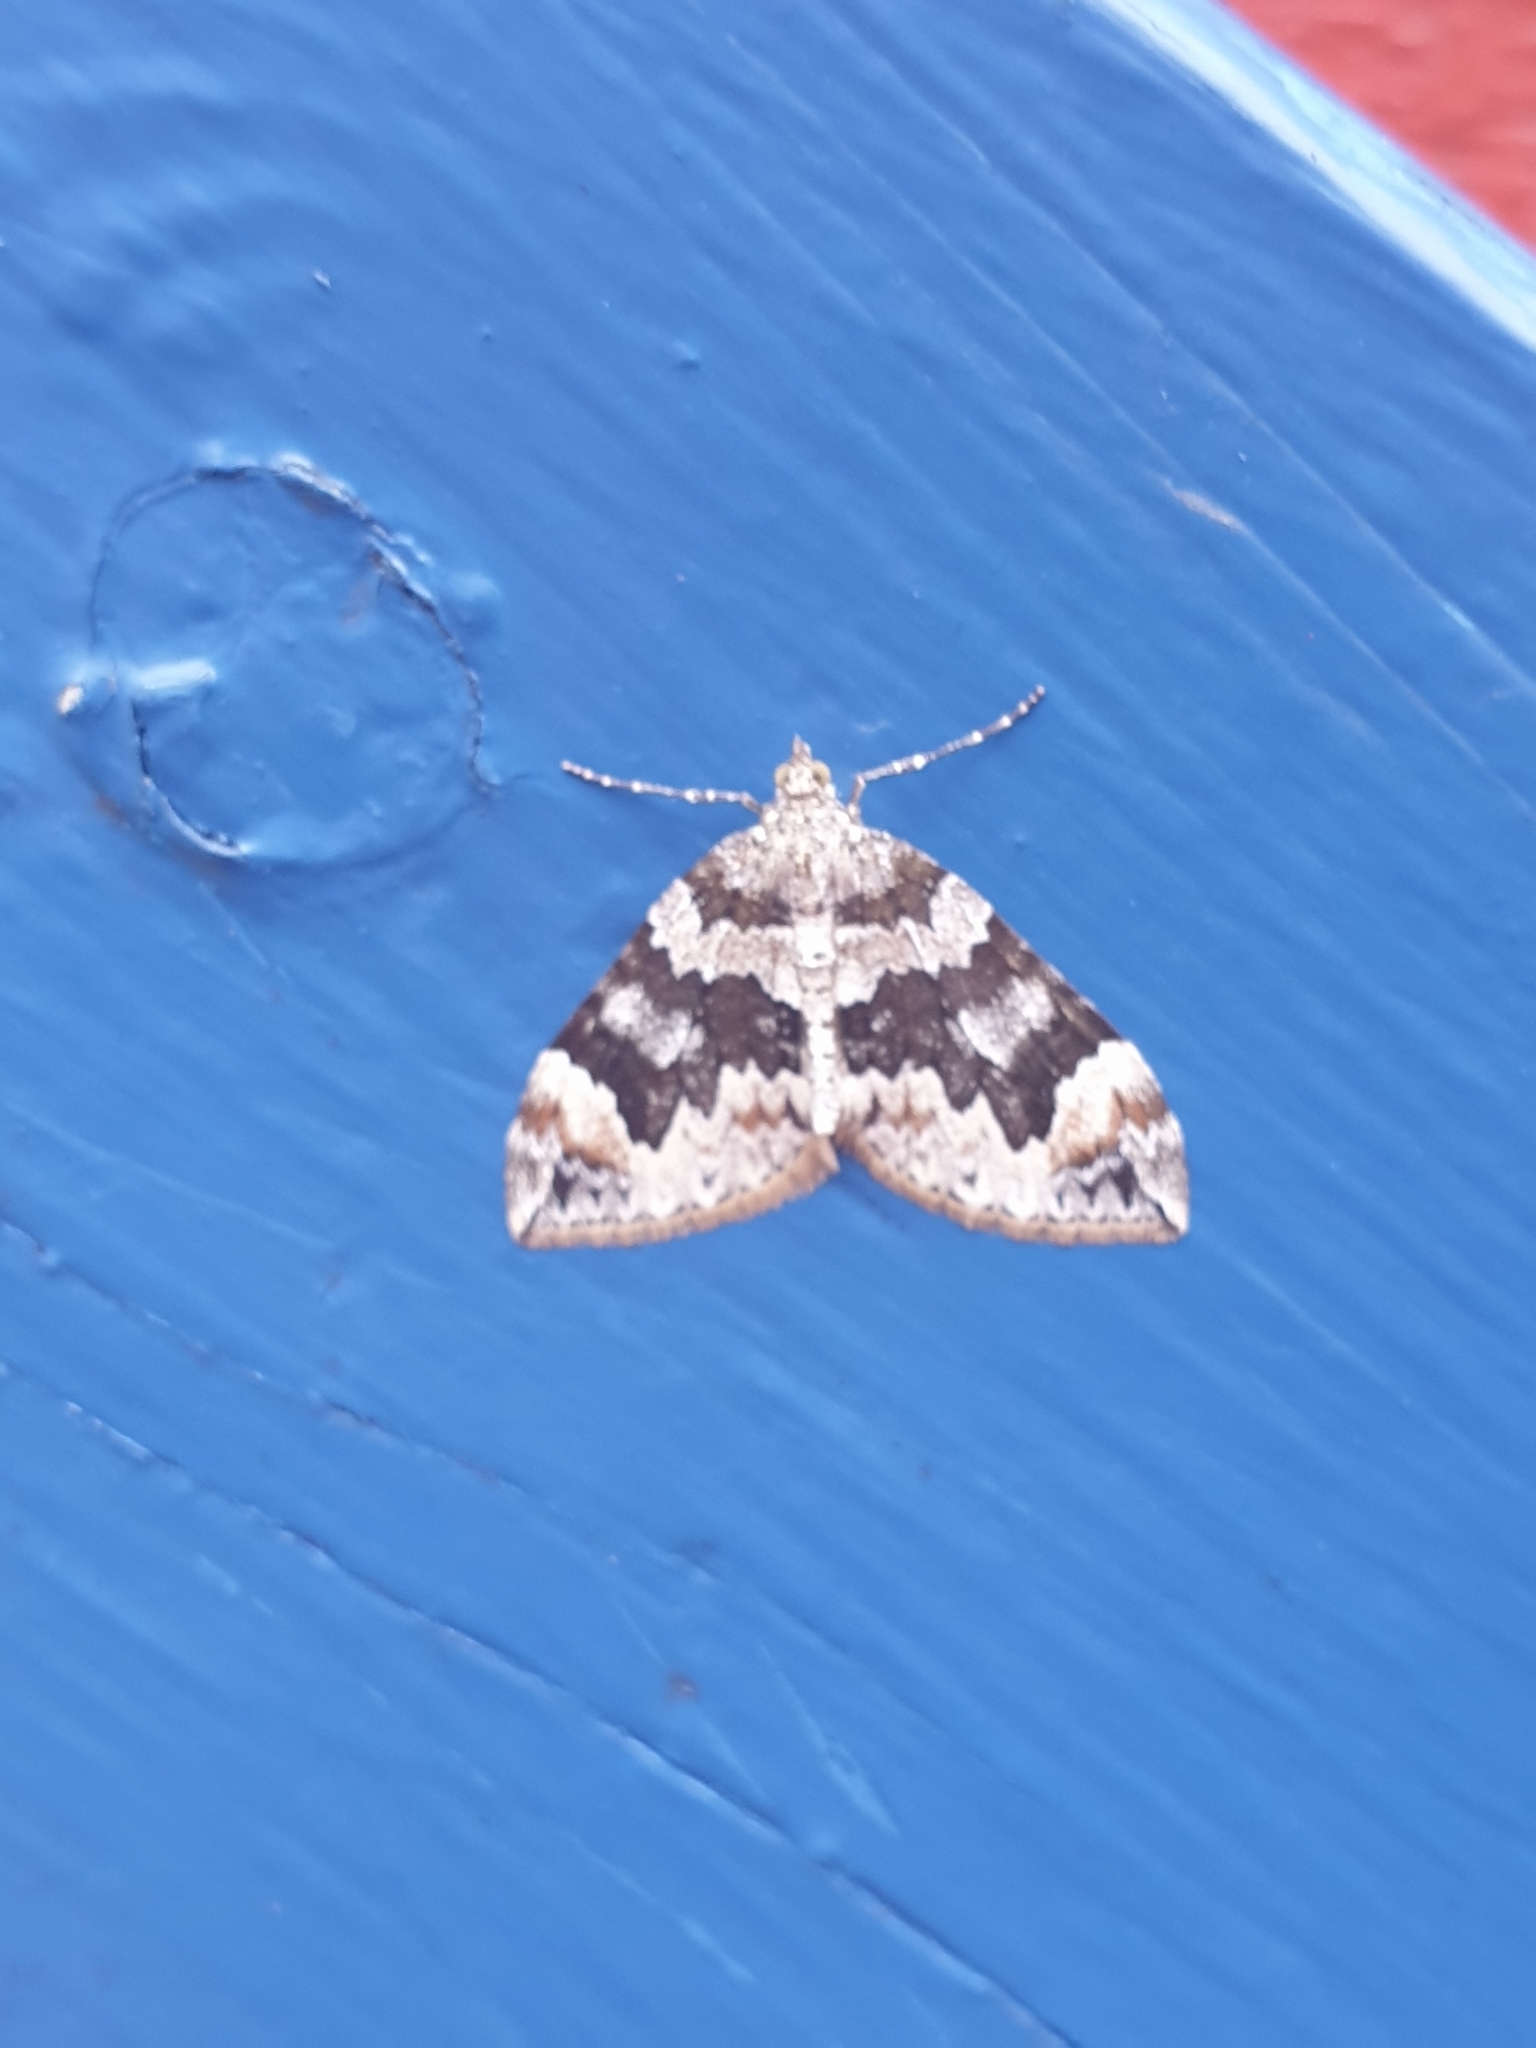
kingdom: Animalia
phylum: Arthropoda
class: Insecta
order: Lepidoptera
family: Geometridae
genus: Dysstroma
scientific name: Dysstroma citrata
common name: Dark marbled carpet
